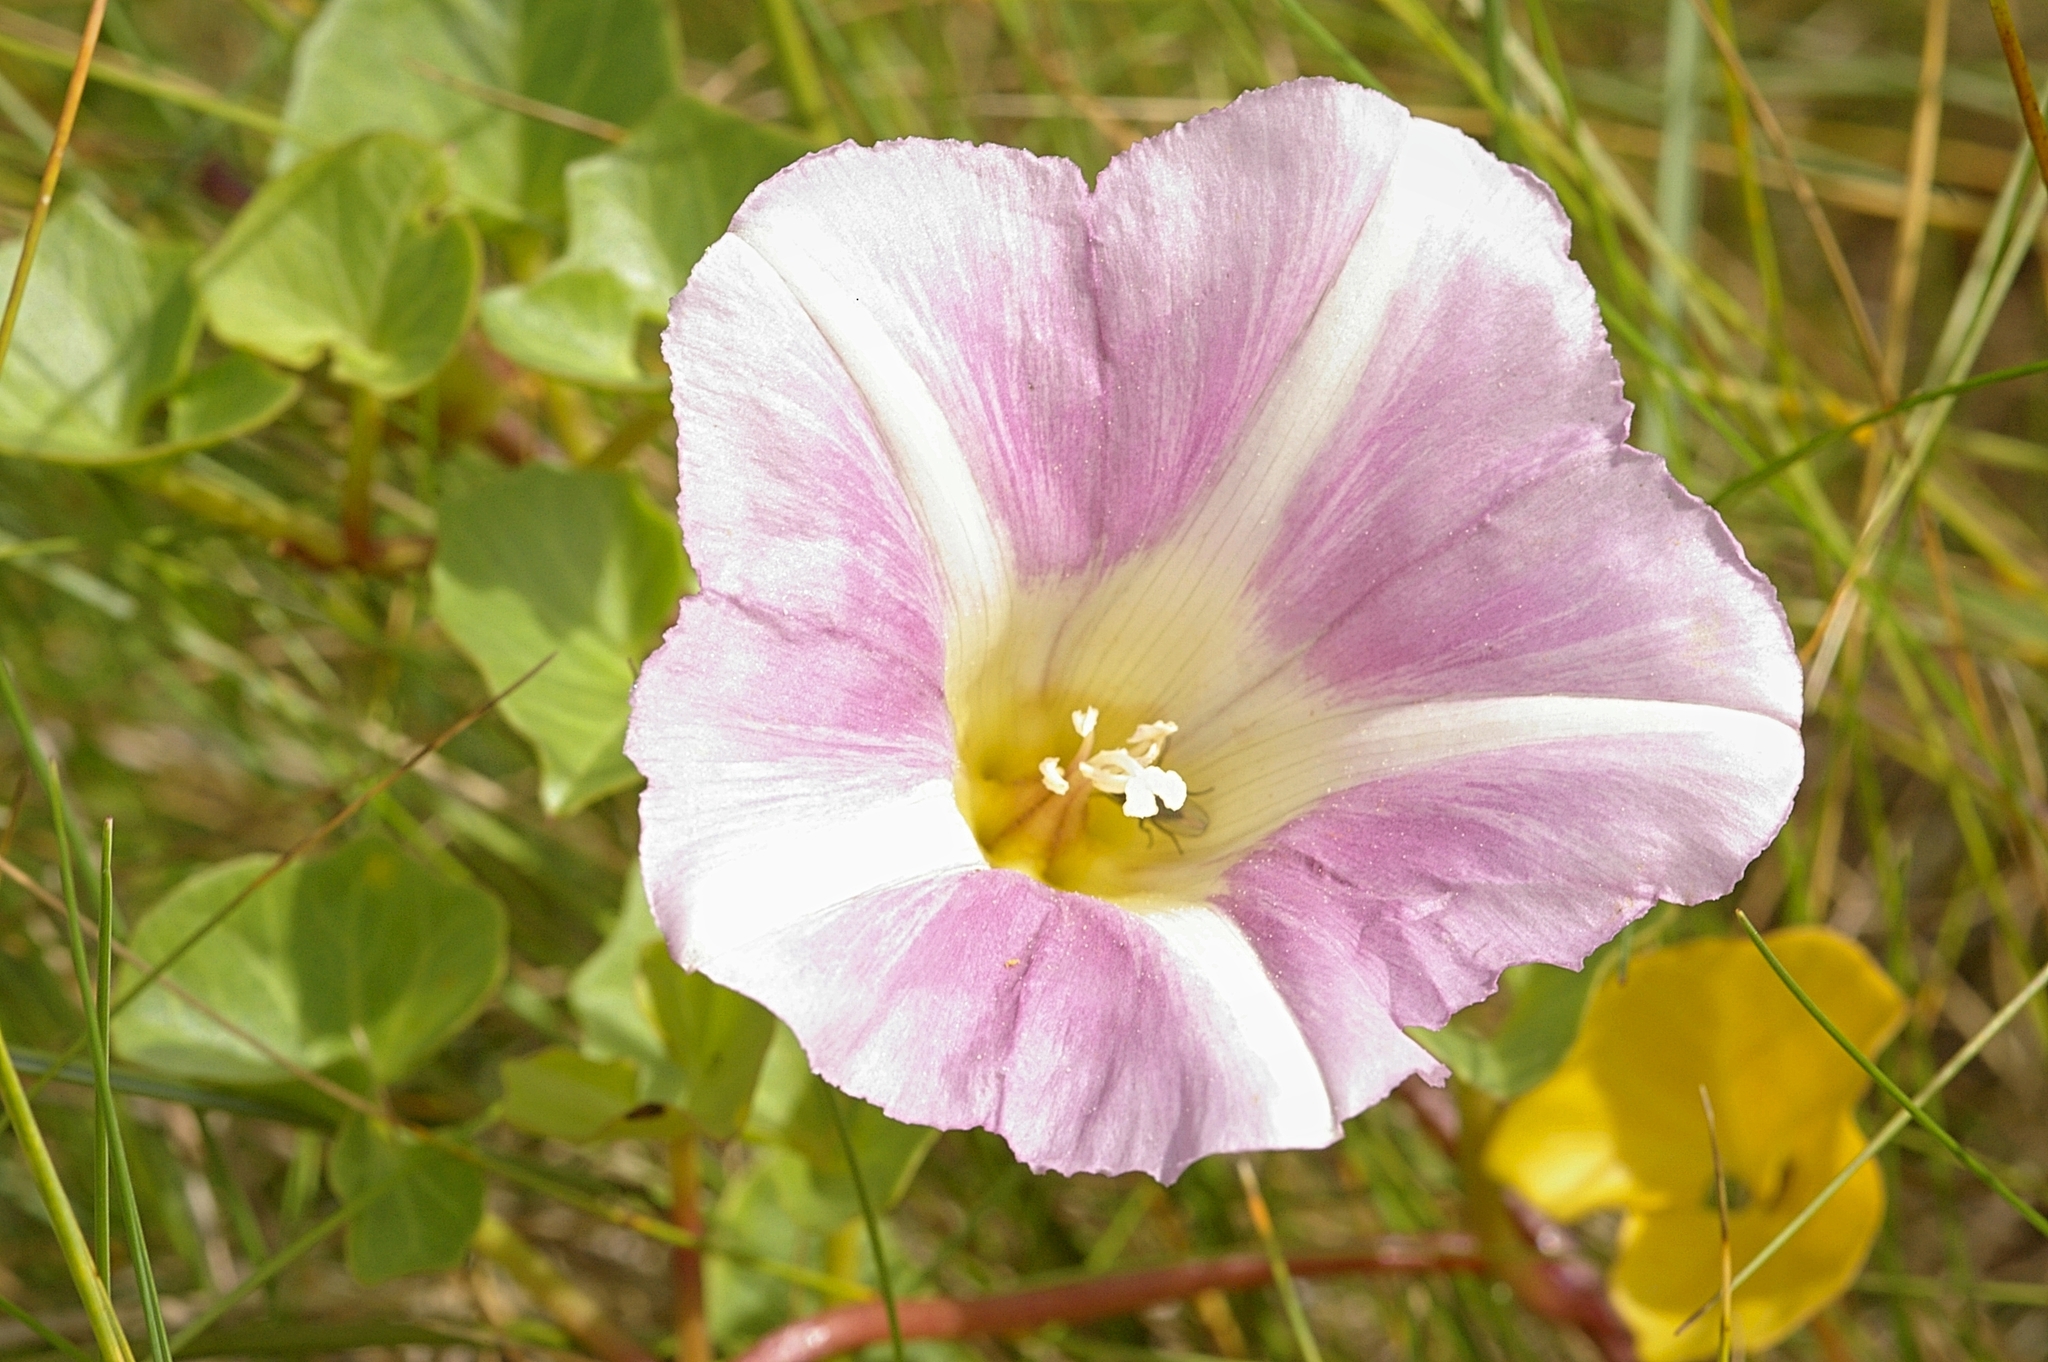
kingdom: Plantae
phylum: Tracheophyta
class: Magnoliopsida
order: Solanales
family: Convolvulaceae
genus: Calystegia
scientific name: Calystegia soldanella
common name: Sea bindweed
